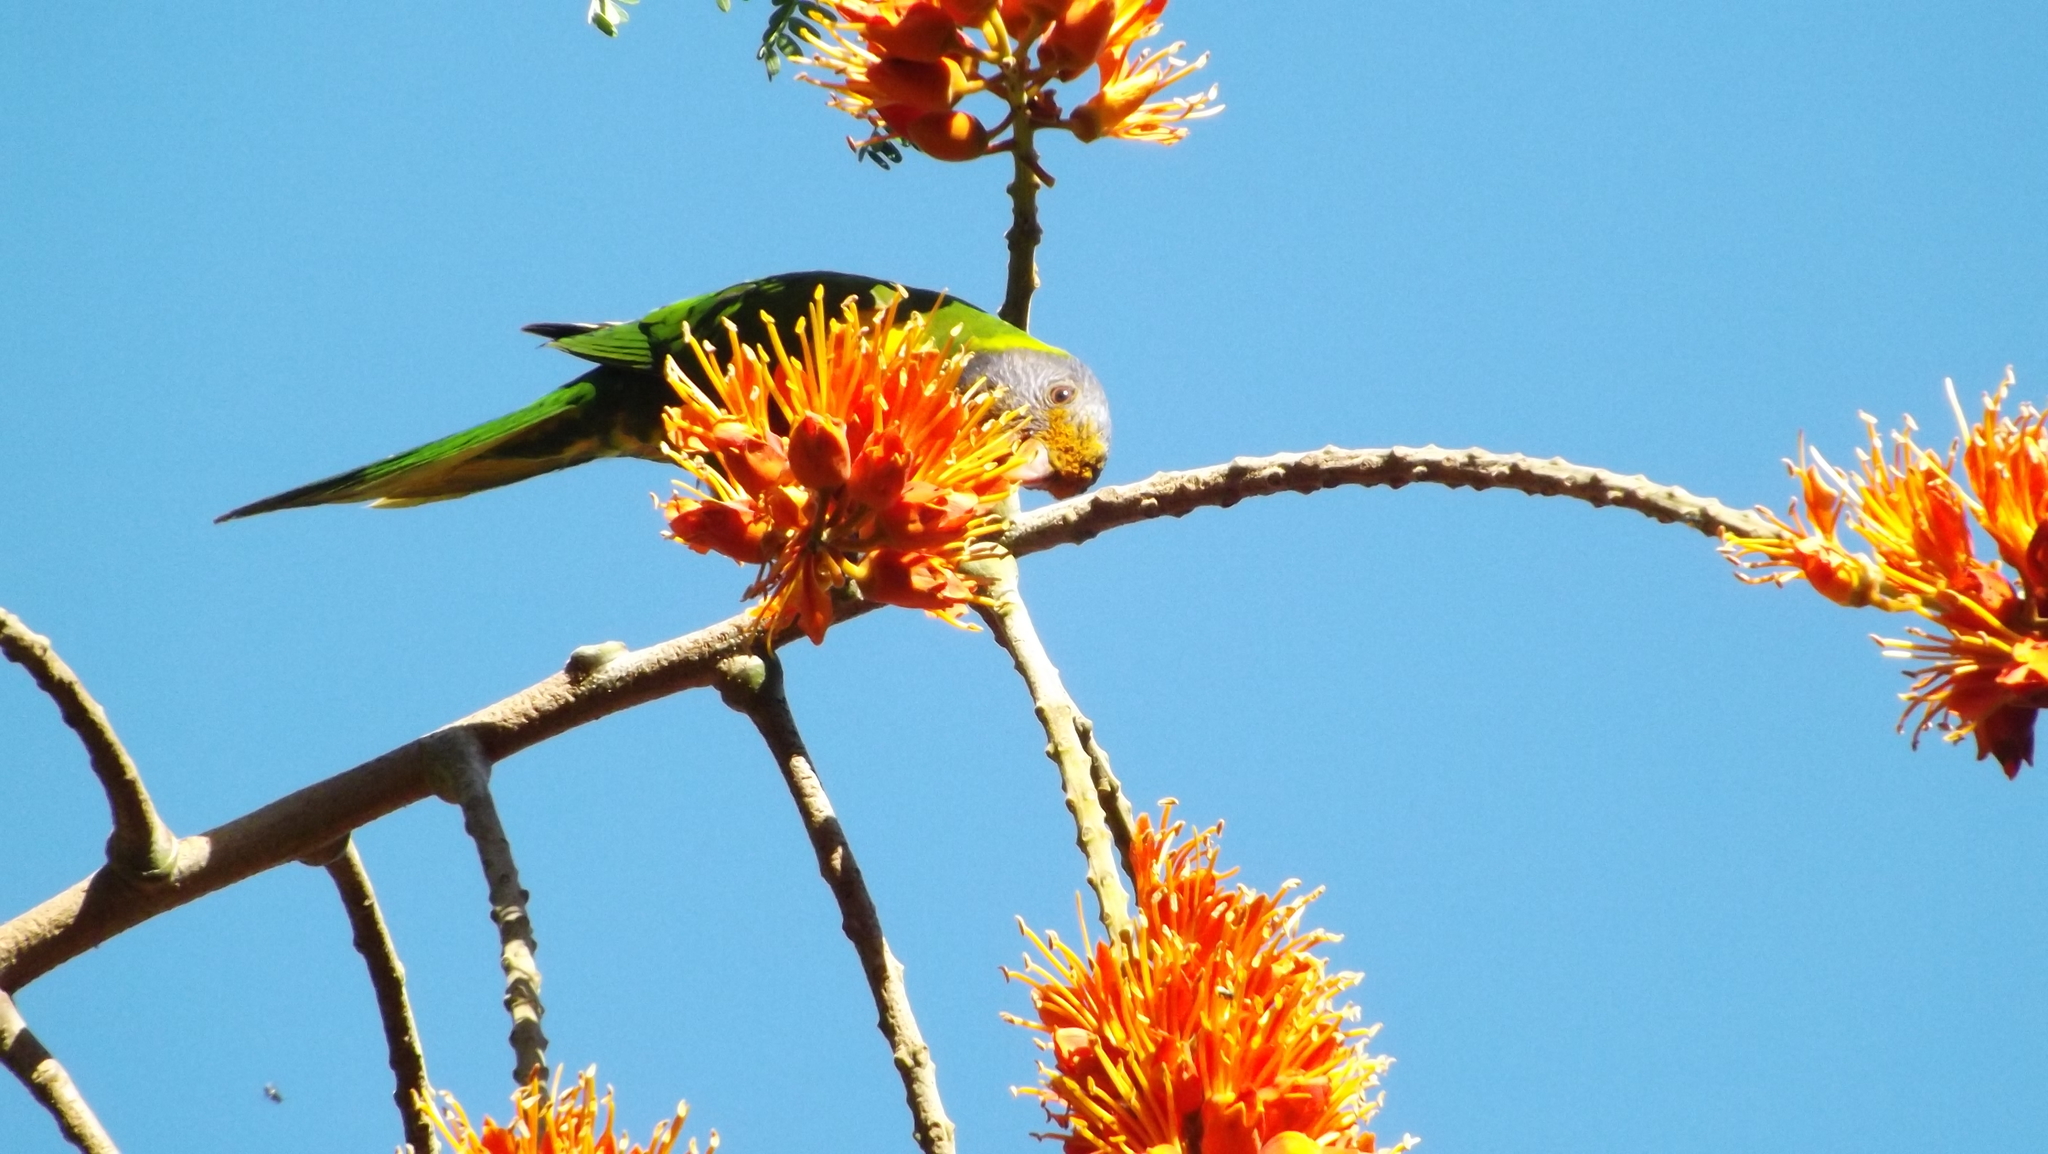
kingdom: Animalia
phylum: Chordata
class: Aves
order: Psittaciformes
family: Psittacidae
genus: Trichoglossus
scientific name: Trichoglossus haematodus
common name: Coconut lorikeet
